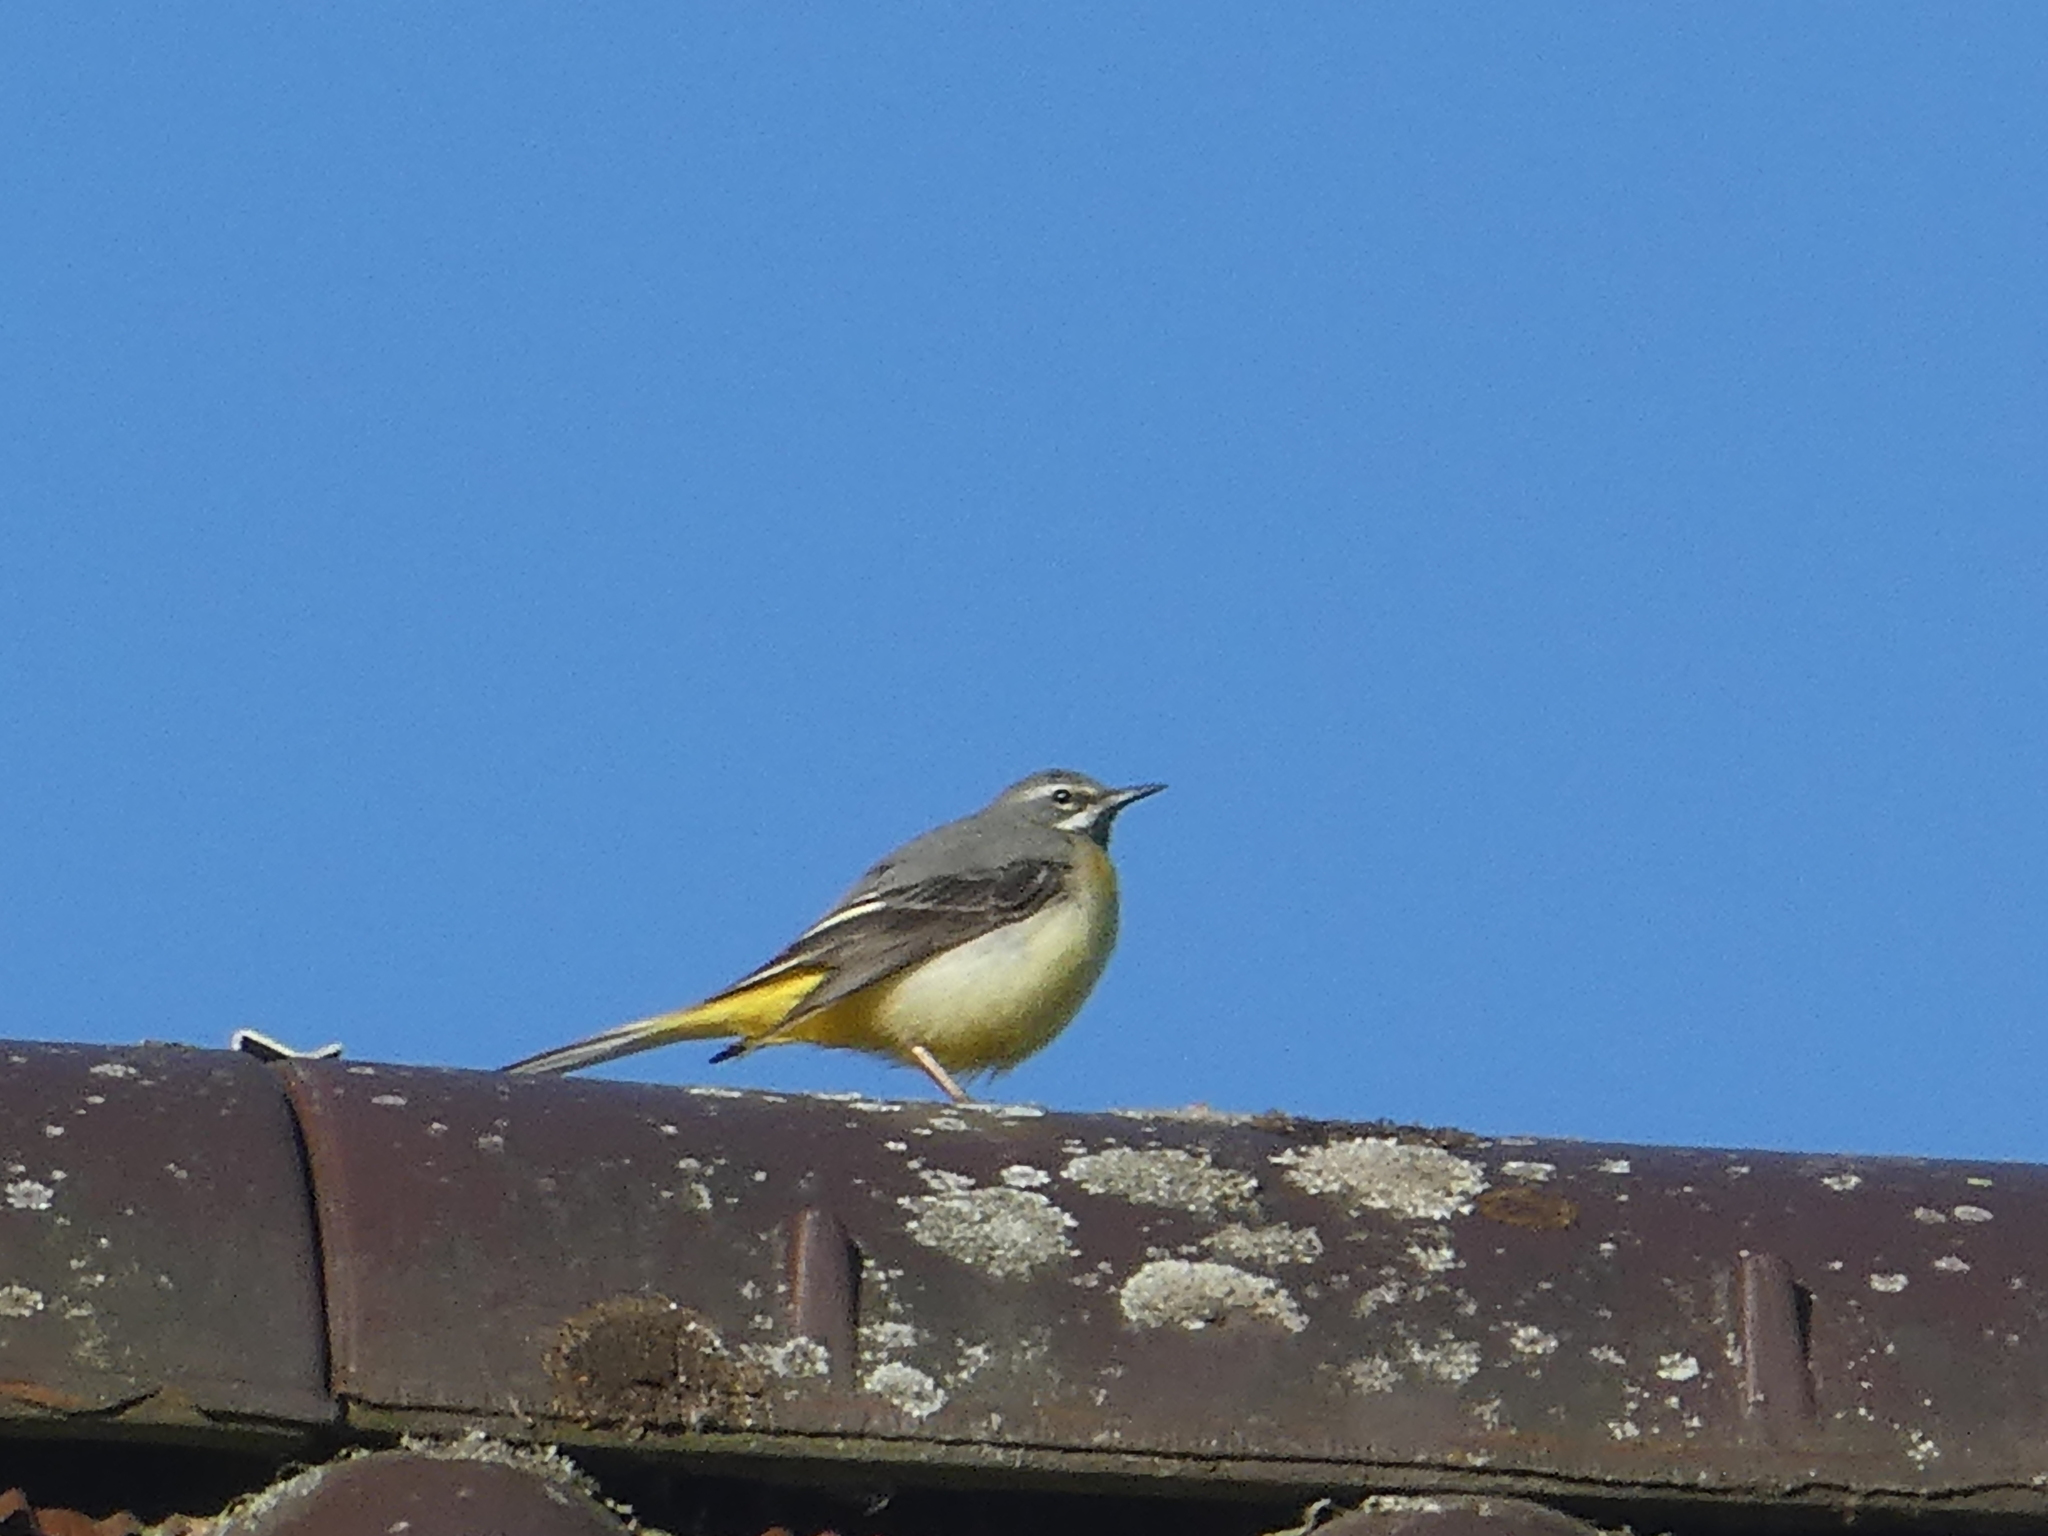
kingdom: Animalia
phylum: Chordata
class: Aves
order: Passeriformes
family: Motacillidae
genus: Motacilla
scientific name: Motacilla cinerea
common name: Grey wagtail
